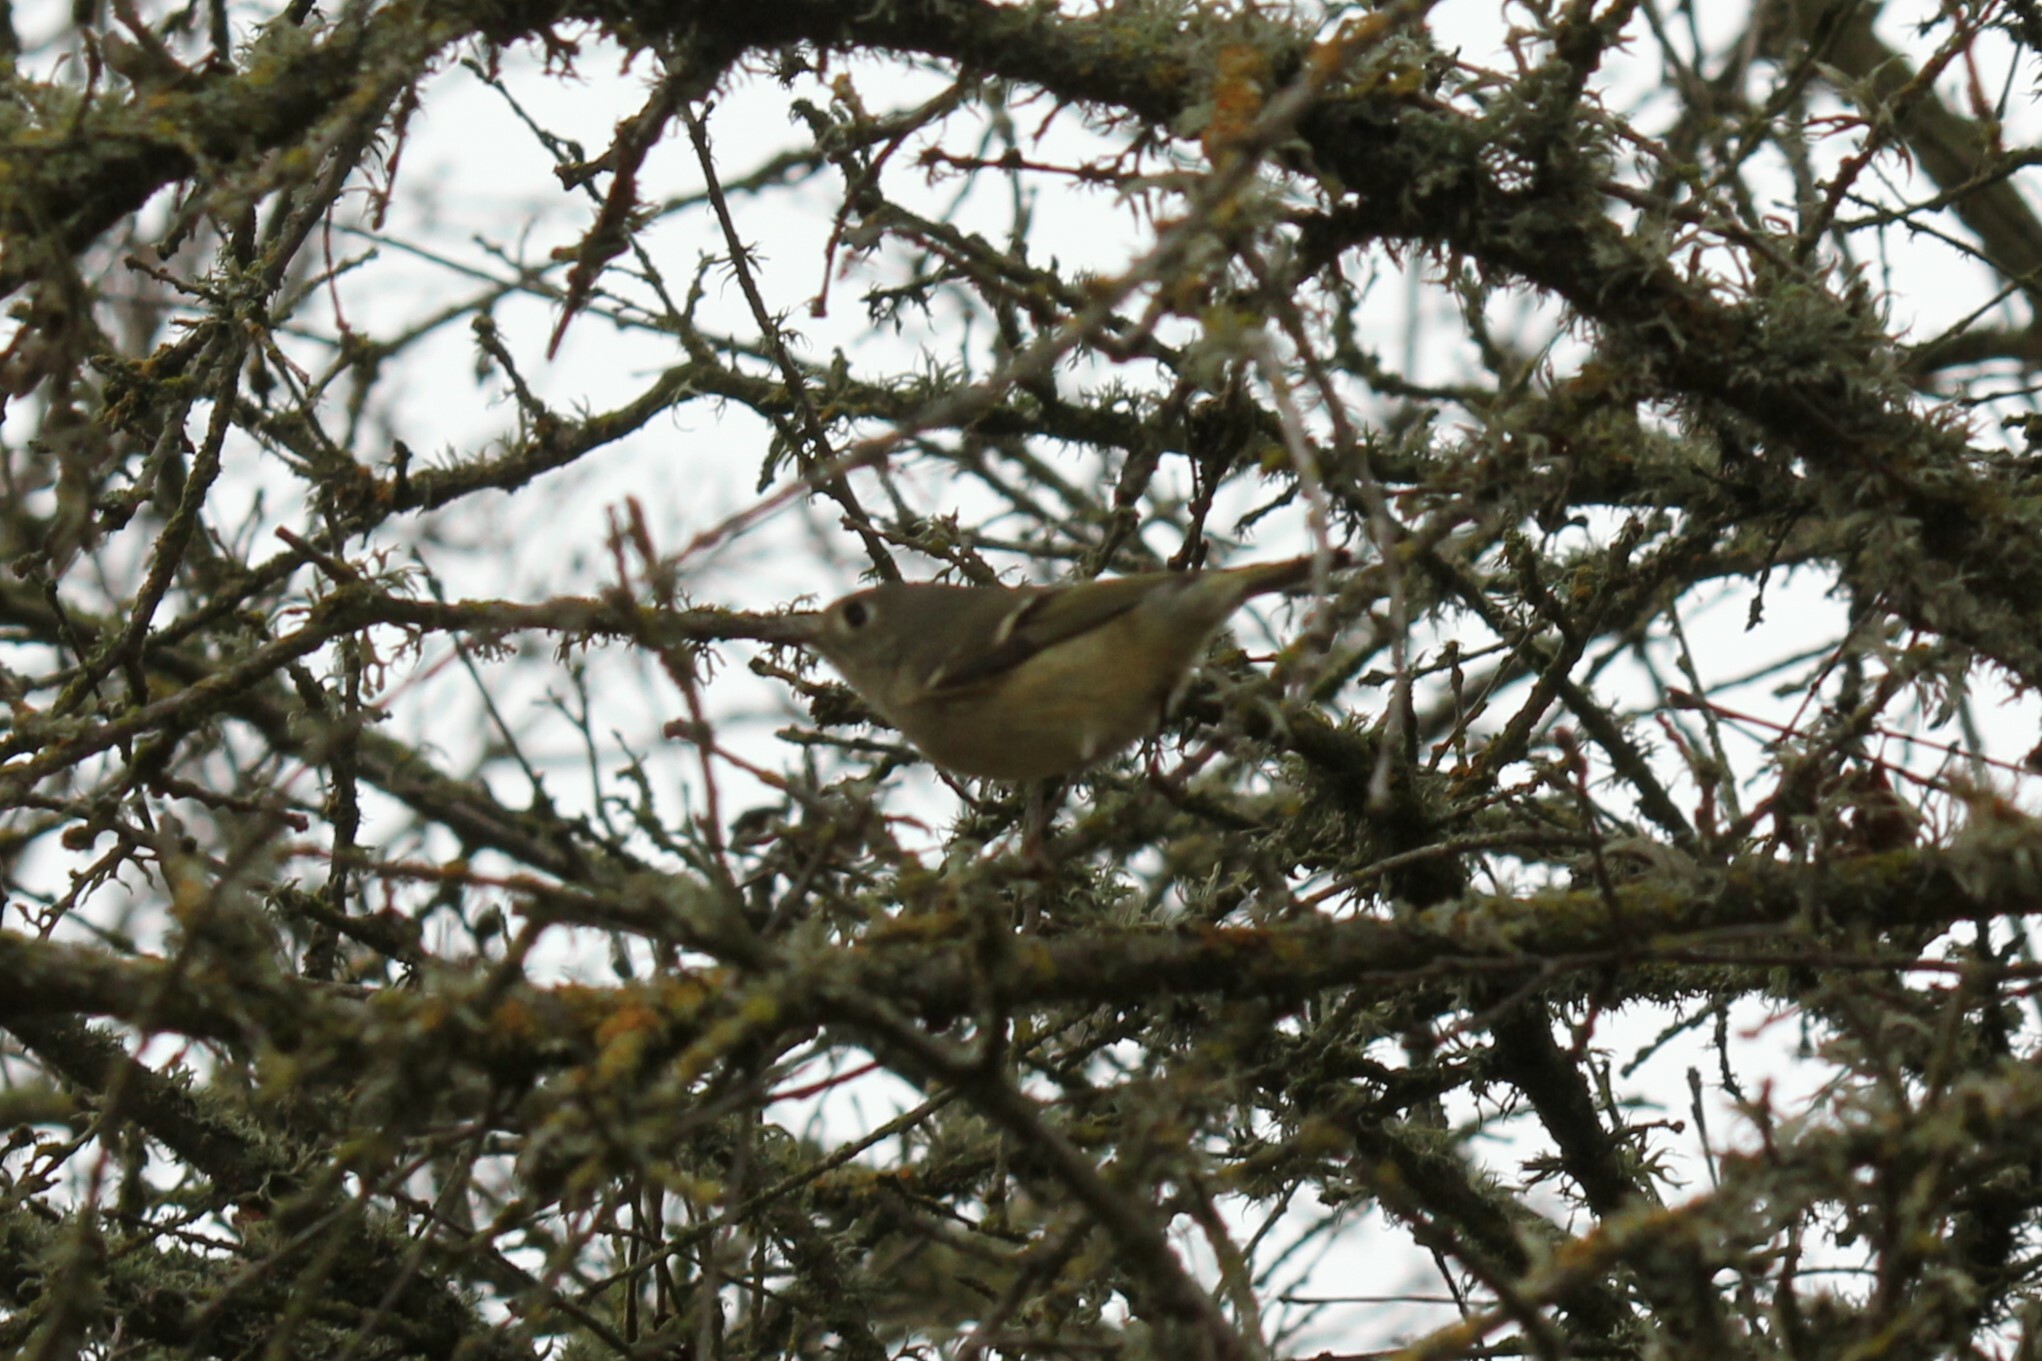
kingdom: Animalia
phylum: Chordata
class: Aves
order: Passeriformes
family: Regulidae
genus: Regulus
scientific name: Regulus calendula
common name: Ruby-crowned kinglet
